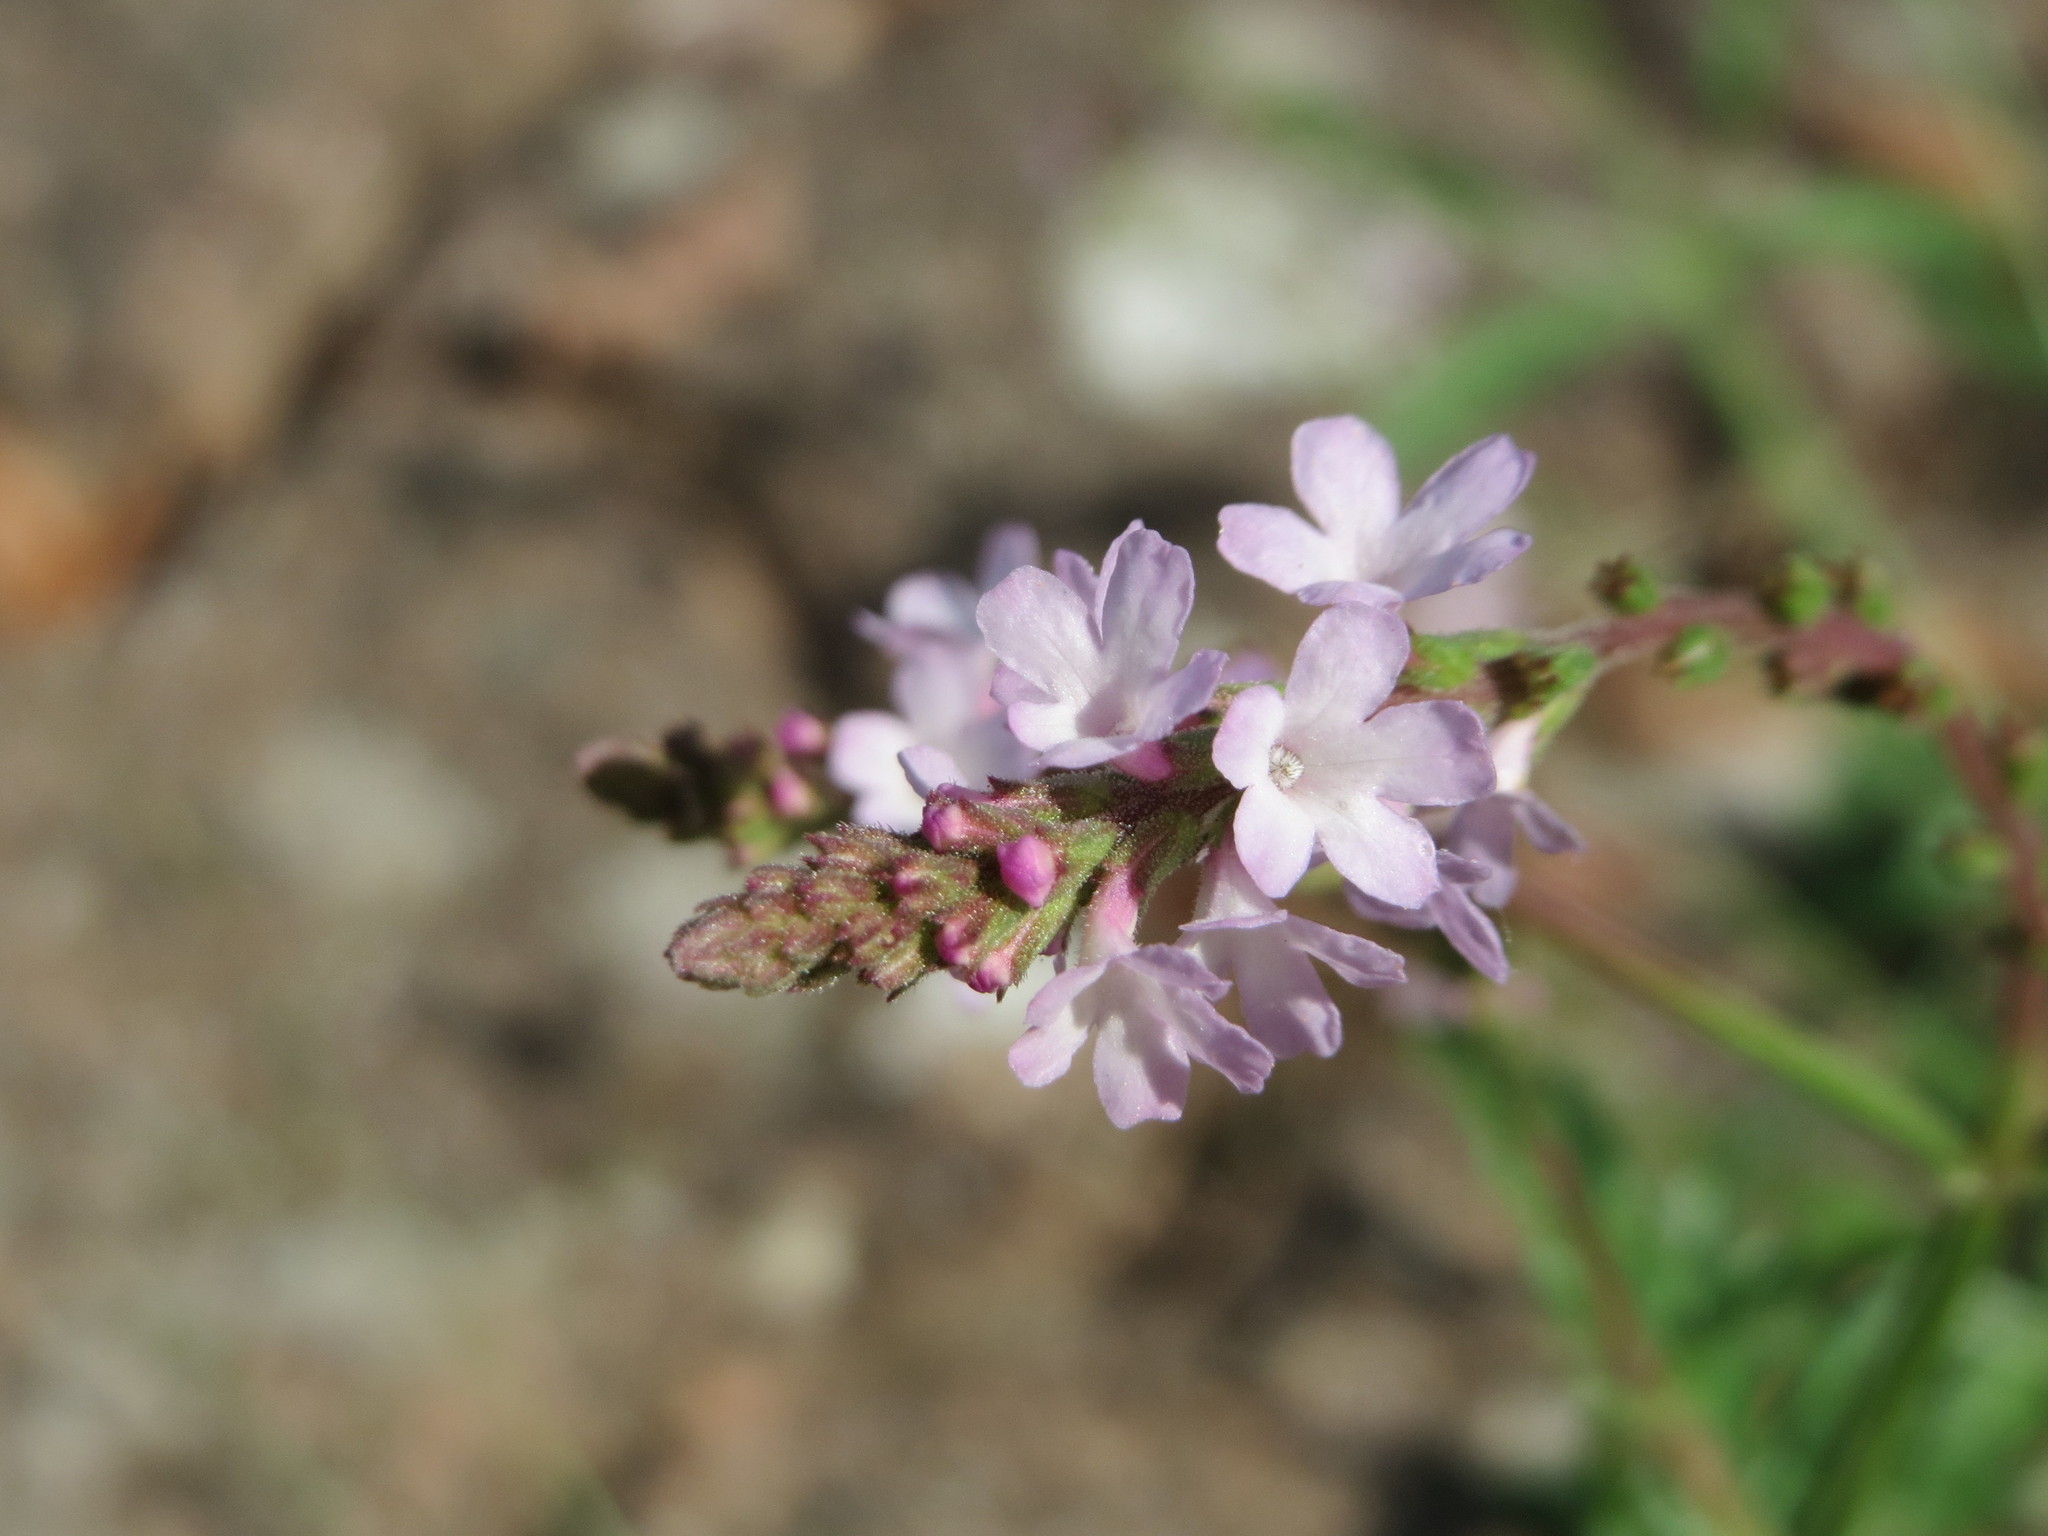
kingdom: Plantae
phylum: Tracheophyta
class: Magnoliopsida
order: Lamiales
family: Verbenaceae
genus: Verbena
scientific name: Verbena officinalis
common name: Vervain
